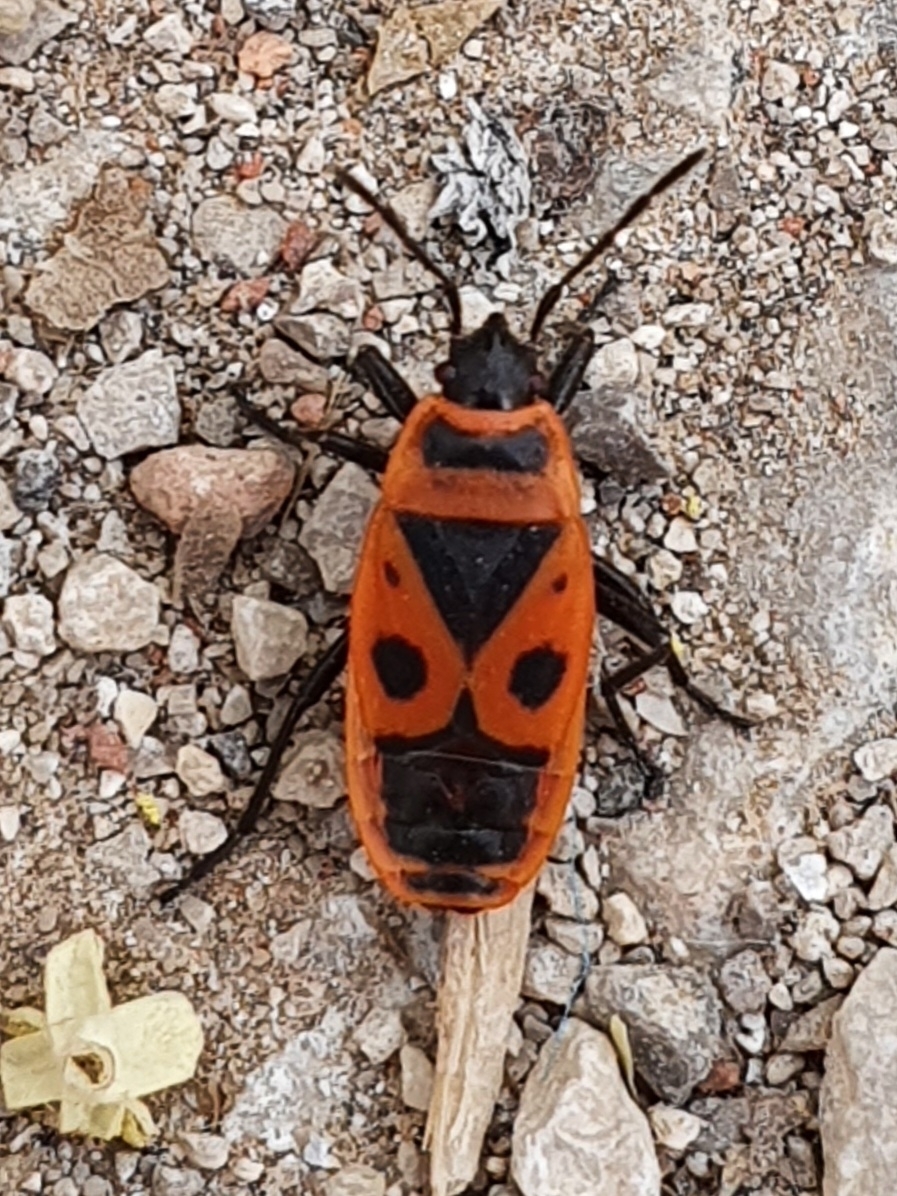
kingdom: Animalia
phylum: Arthropoda
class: Insecta
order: Hemiptera
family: Pyrrhocoridae
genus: Pyrrhocoris
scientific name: Pyrrhocoris apterus
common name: Firebug
